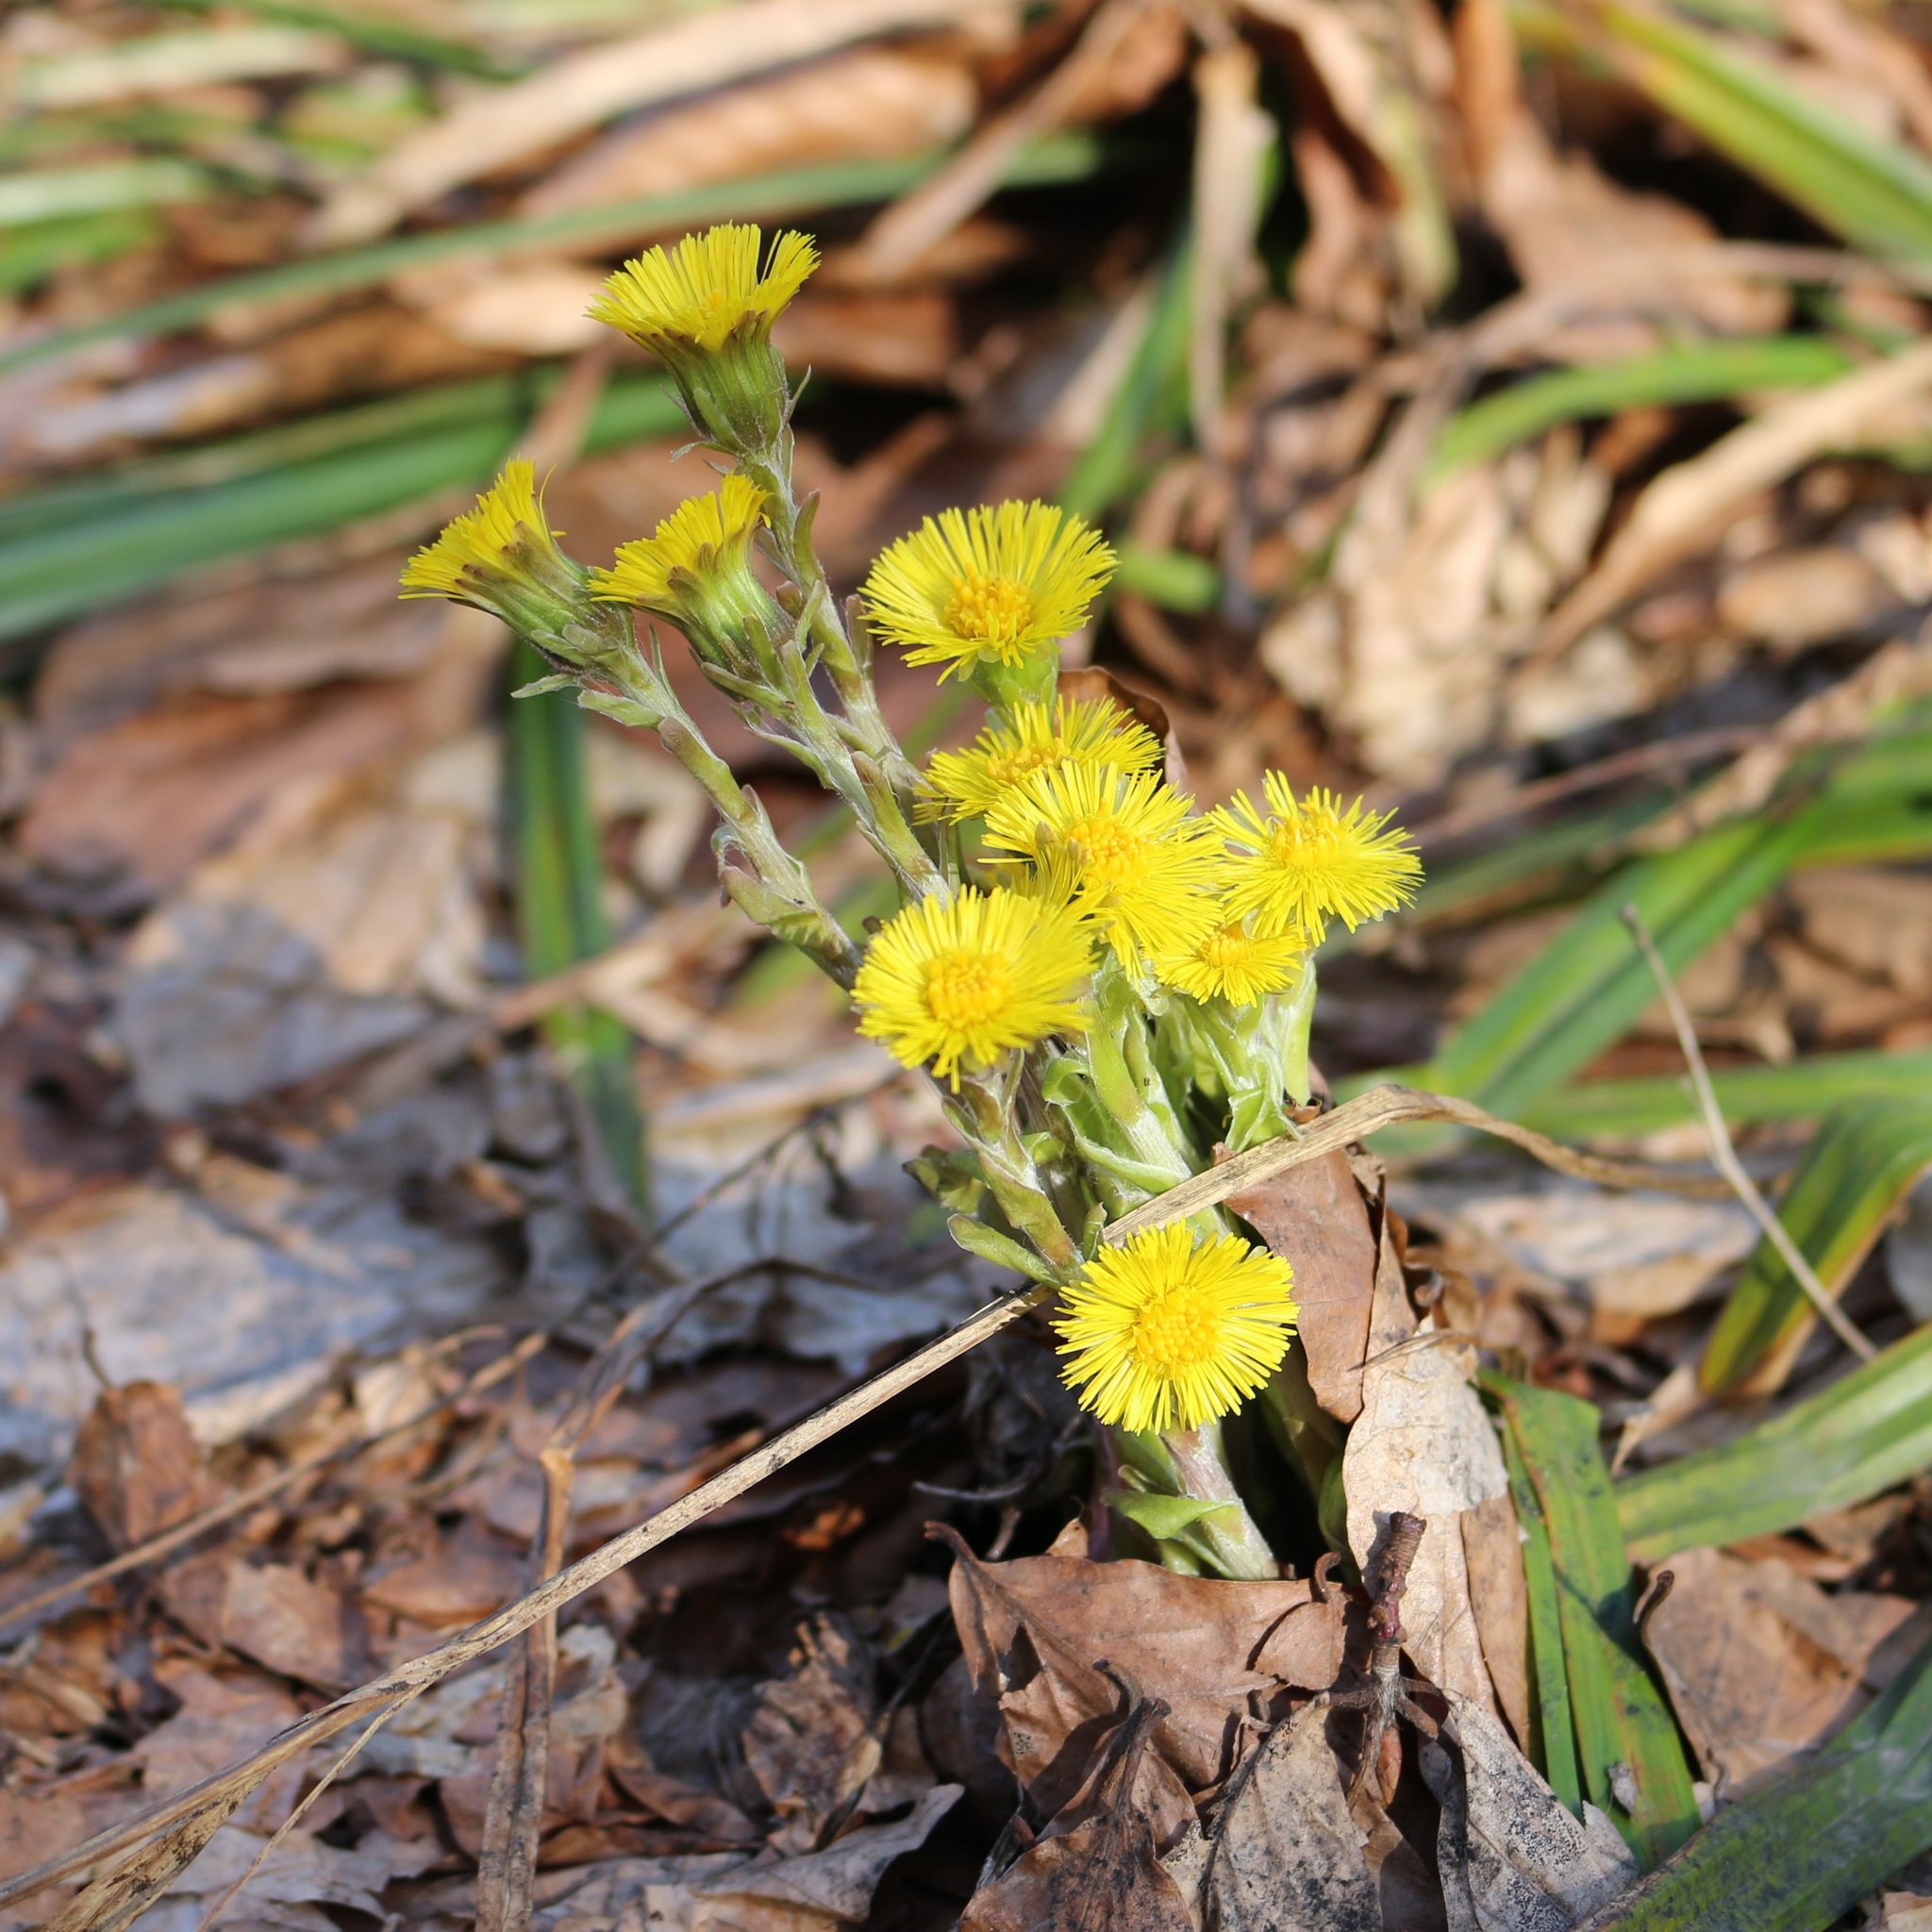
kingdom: Plantae
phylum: Tracheophyta
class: Magnoliopsida
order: Asterales
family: Asteraceae
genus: Tussilago
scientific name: Tussilago farfara
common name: Coltsfoot
